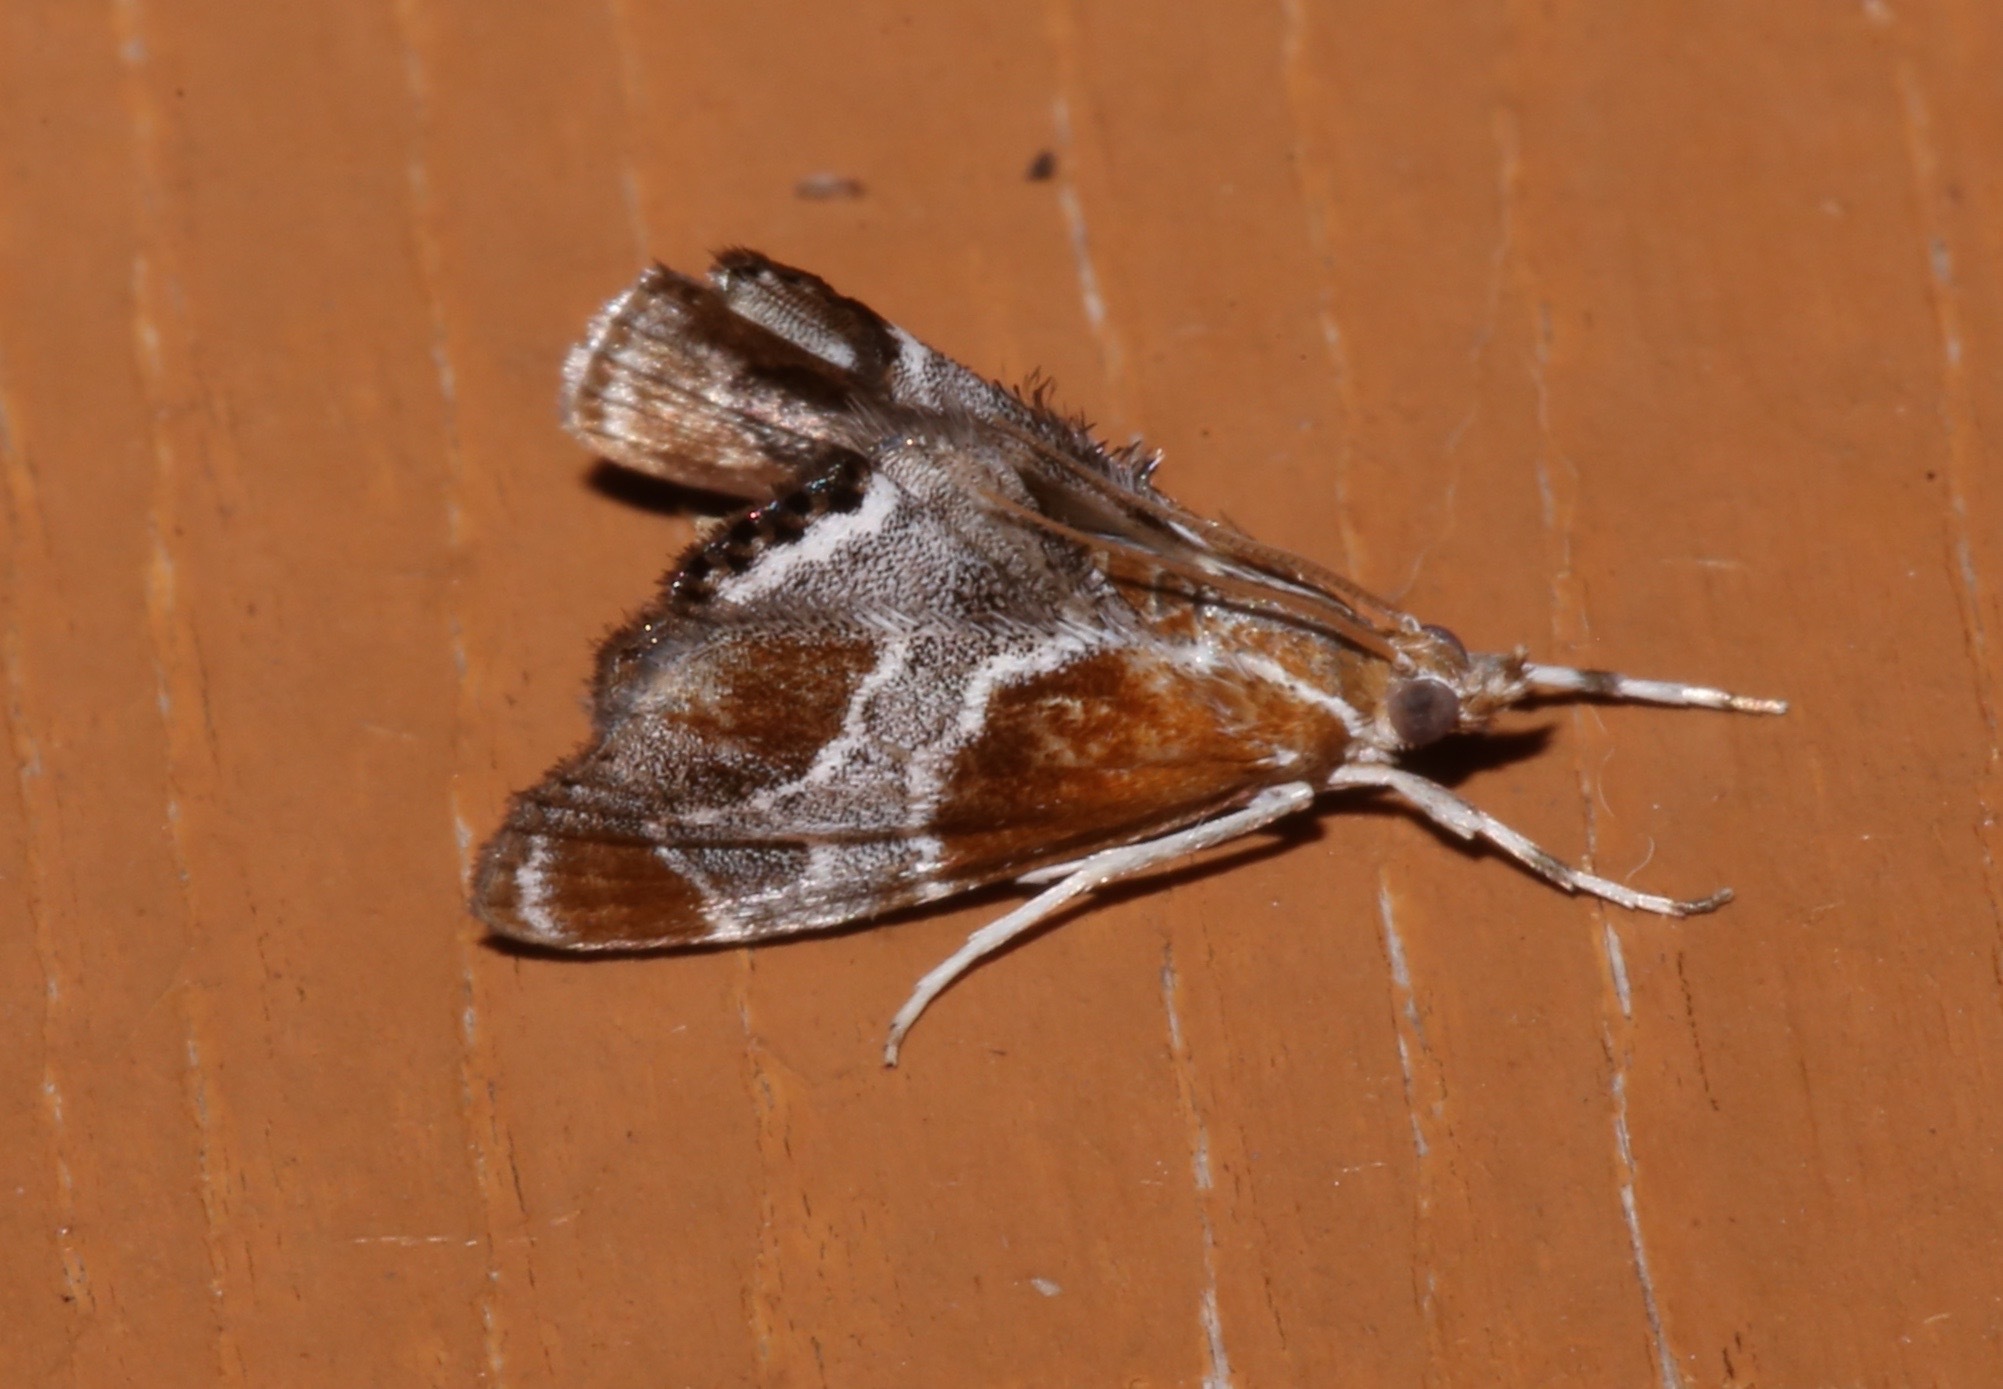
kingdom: Animalia
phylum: Arthropoda
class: Insecta
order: Lepidoptera
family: Crambidae
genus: Chalcoela
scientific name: Chalcoela pegasalis
